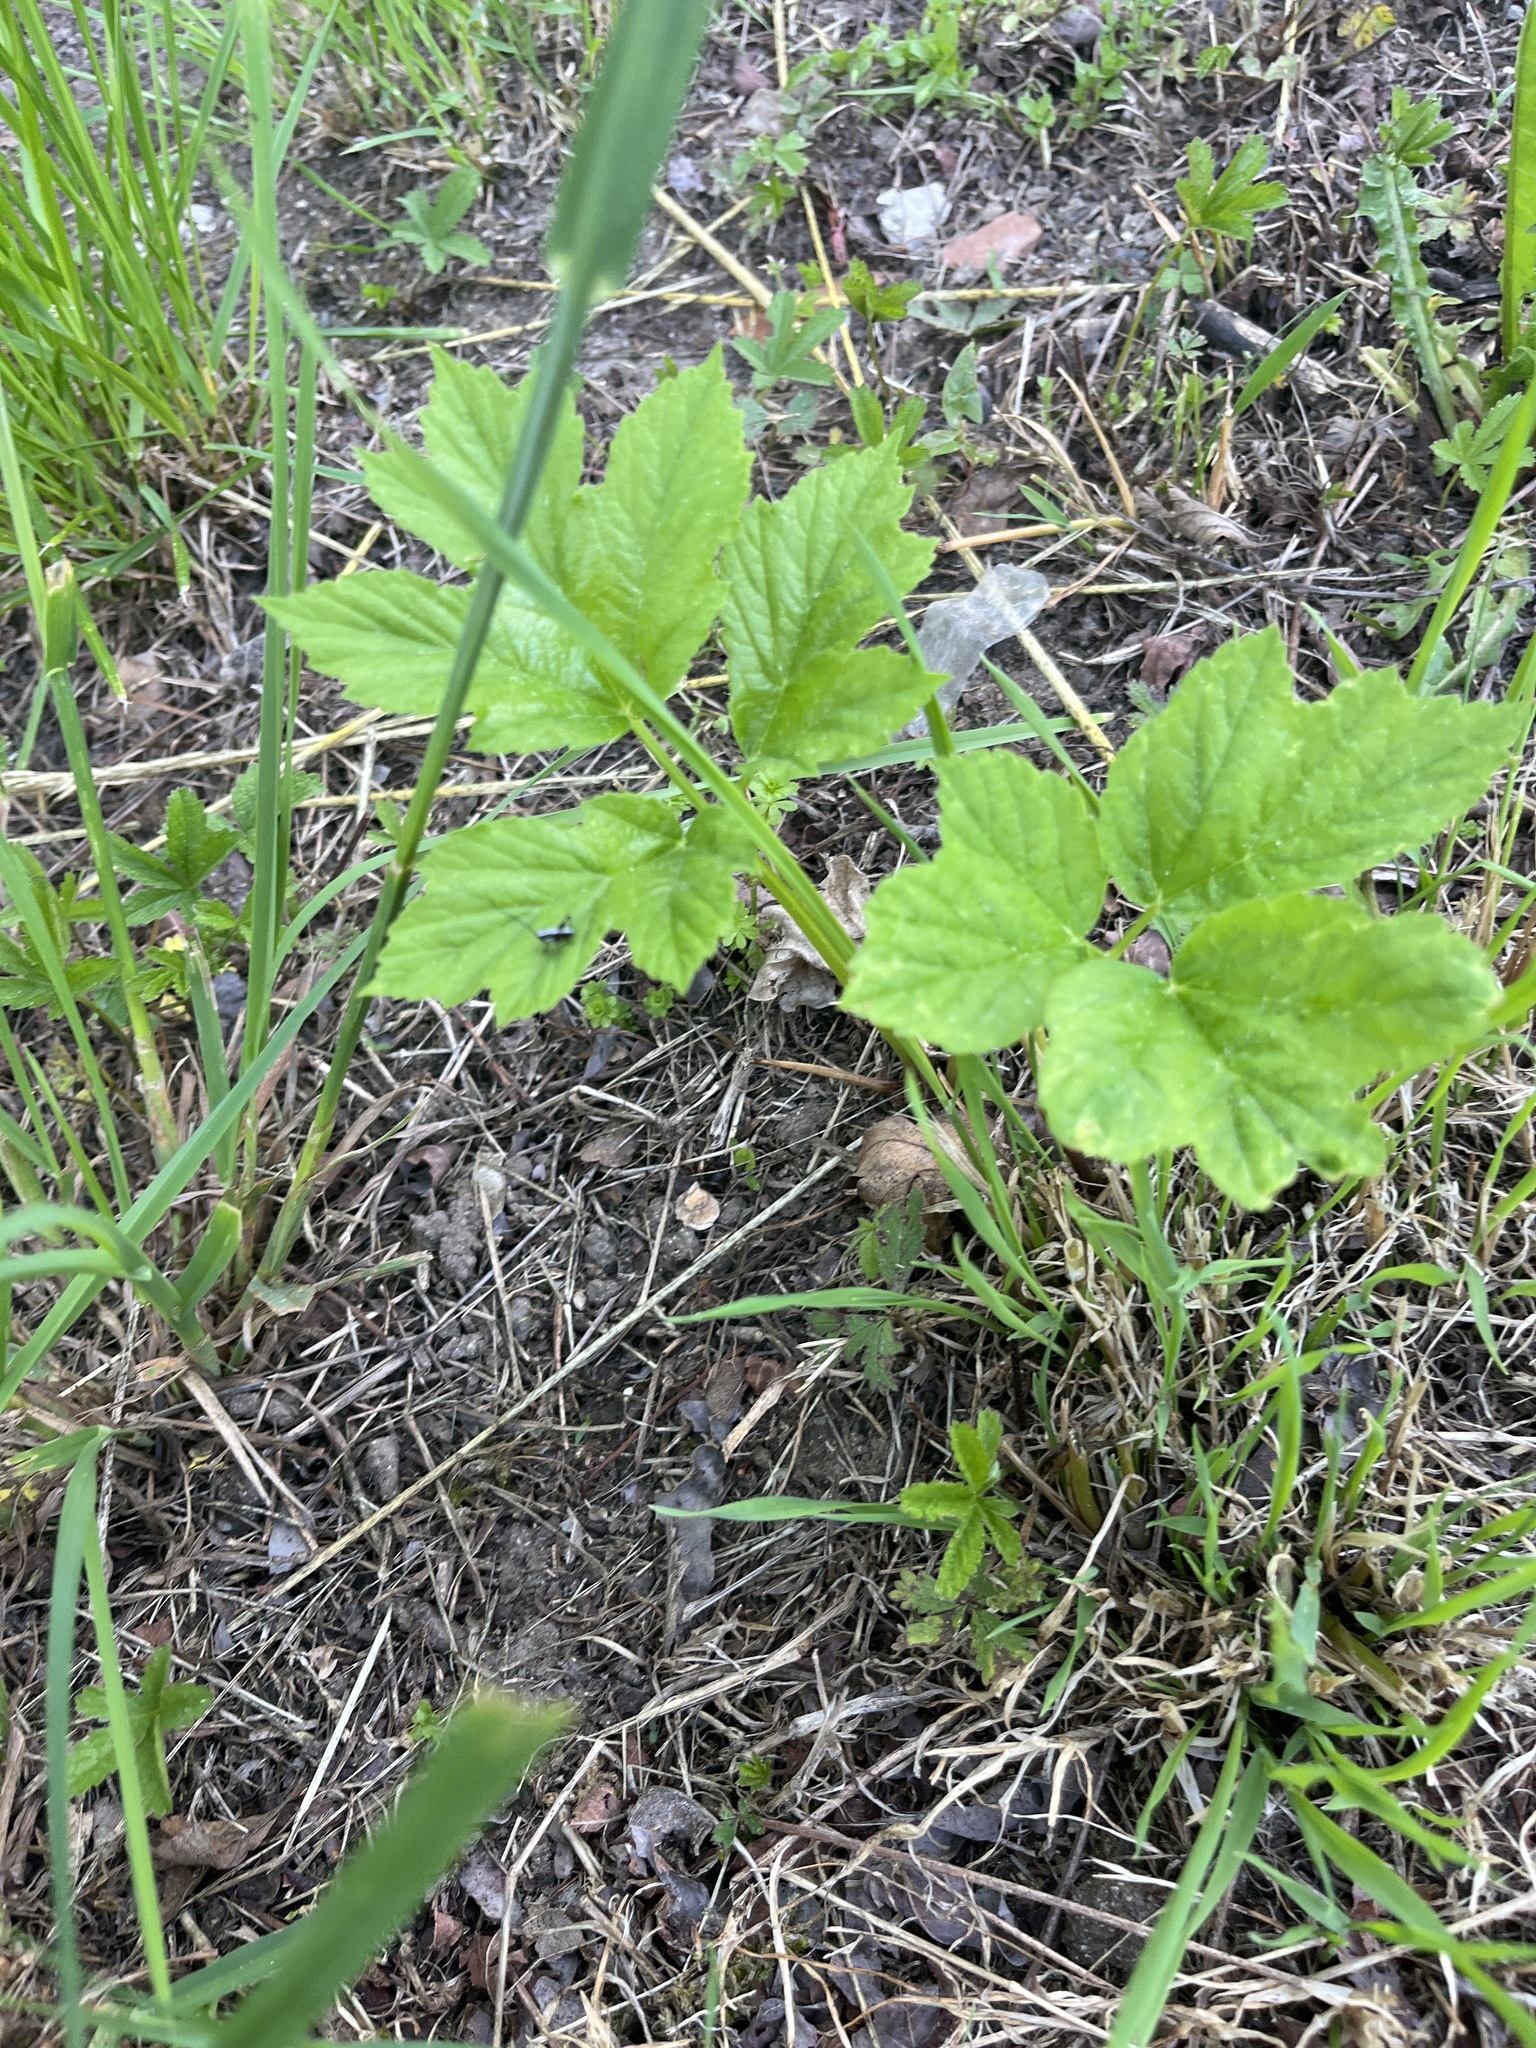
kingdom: Plantae
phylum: Tracheophyta
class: Magnoliopsida
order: Apiales
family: Apiaceae
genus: Heracleum
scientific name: Heracleum sphondylium
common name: Hogweed
